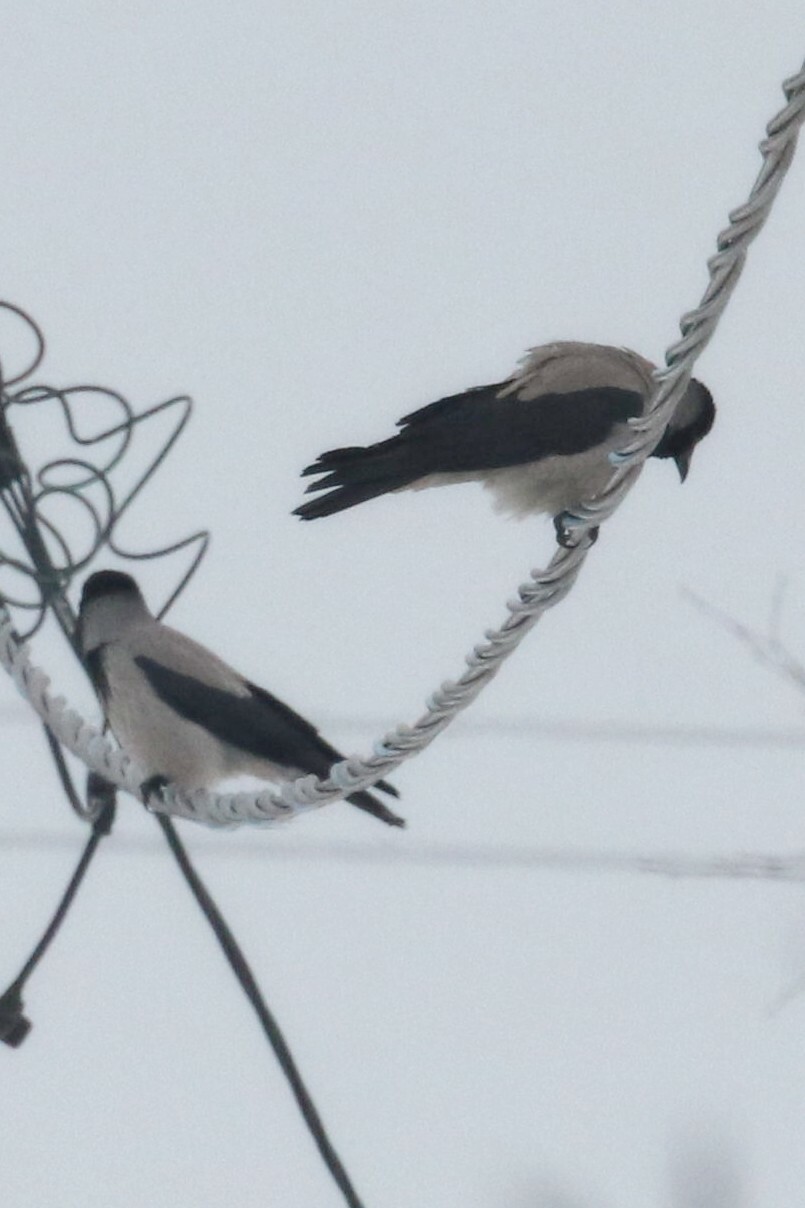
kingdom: Animalia
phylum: Chordata
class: Aves
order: Passeriformes
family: Corvidae
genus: Corvus
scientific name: Corvus cornix
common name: Hooded crow
